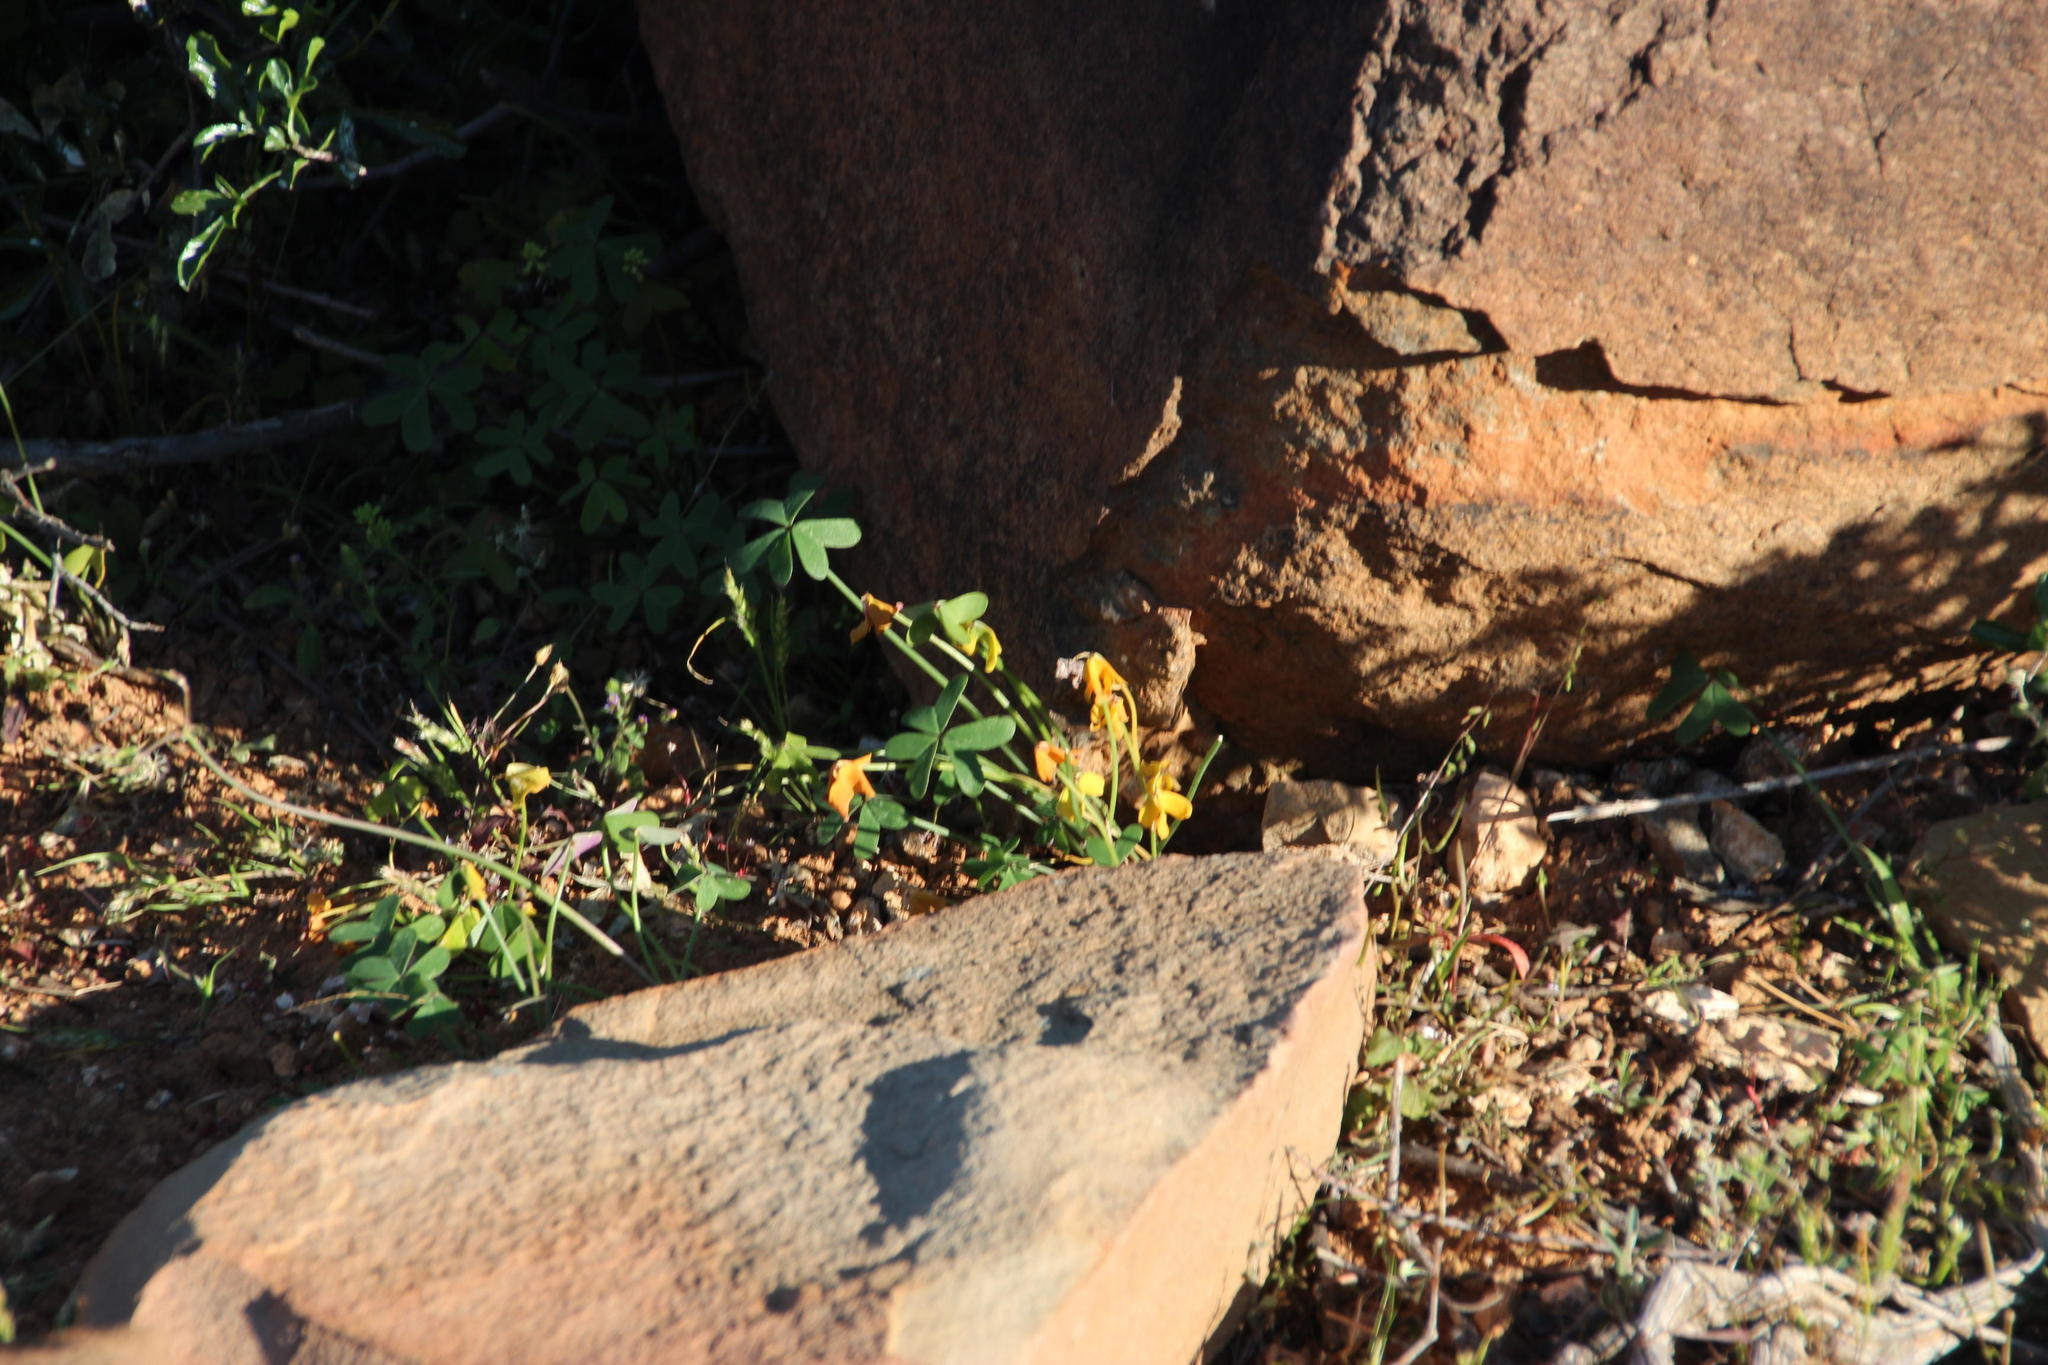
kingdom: Plantae
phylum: Tracheophyta
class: Magnoliopsida
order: Oxalidales
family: Oxalidaceae
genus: Oxalis
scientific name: Oxalis pes-caprae
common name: Bermuda-buttercup
